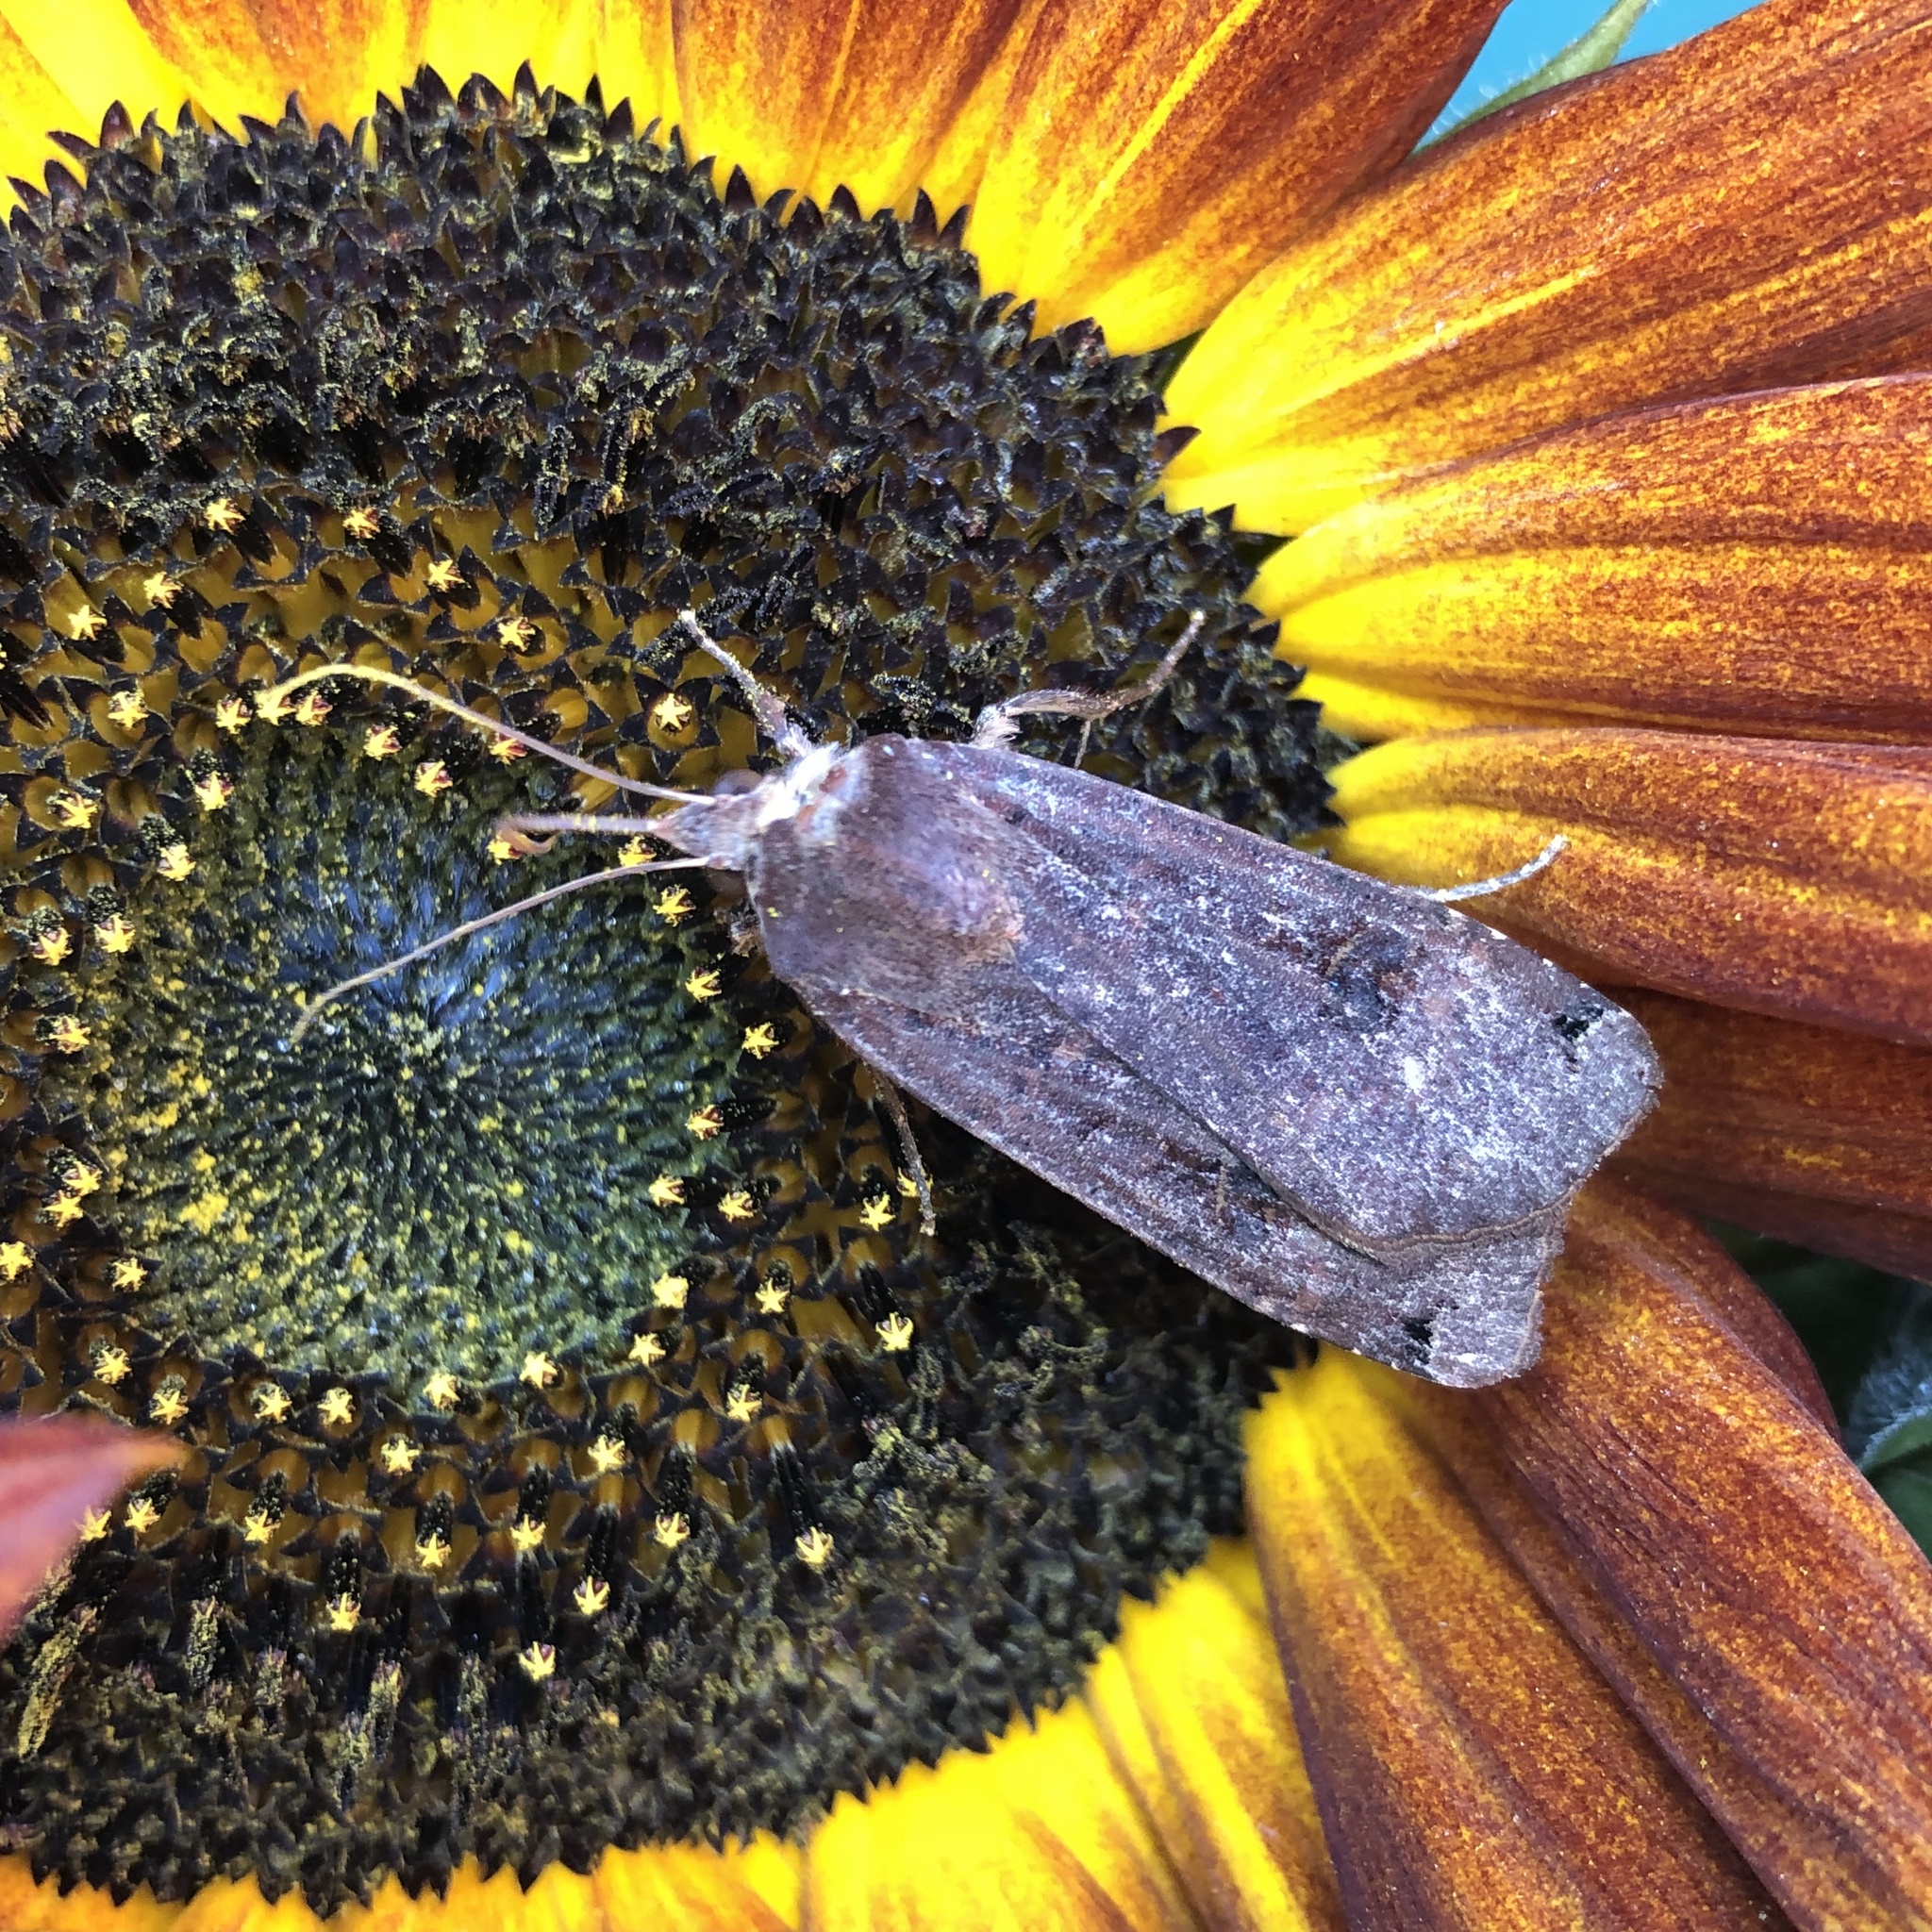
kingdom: Animalia
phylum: Arthropoda
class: Insecta
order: Lepidoptera
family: Noctuidae
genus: Noctua
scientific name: Noctua pronuba
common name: Large yellow underwing
